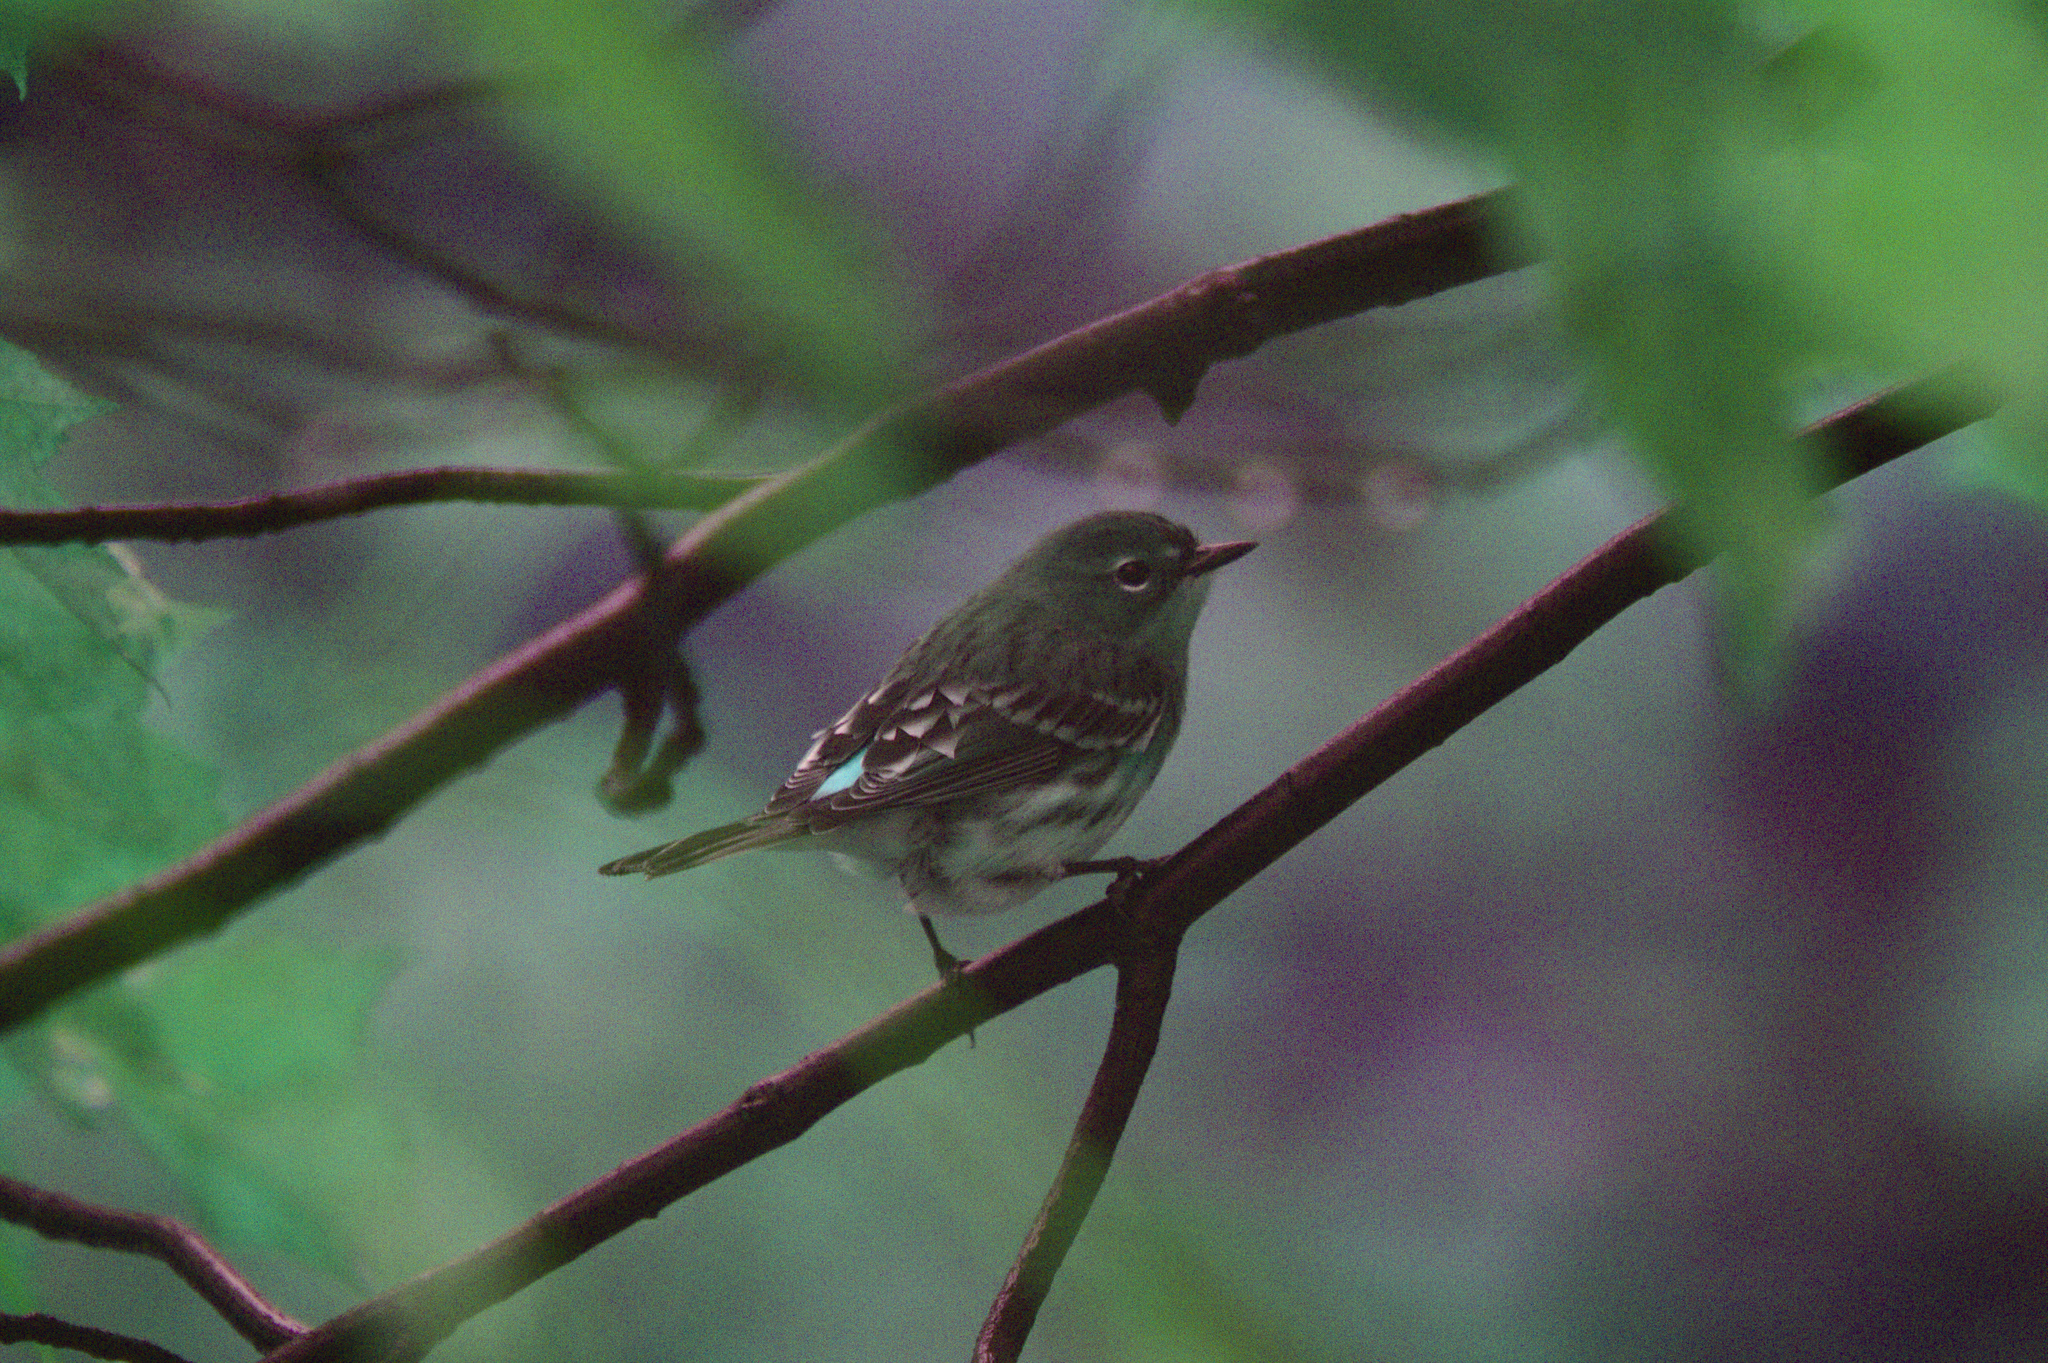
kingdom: Animalia
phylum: Chordata
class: Aves
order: Passeriformes
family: Parulidae
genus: Setophaga
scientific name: Setophaga coronata
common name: Myrtle warbler
